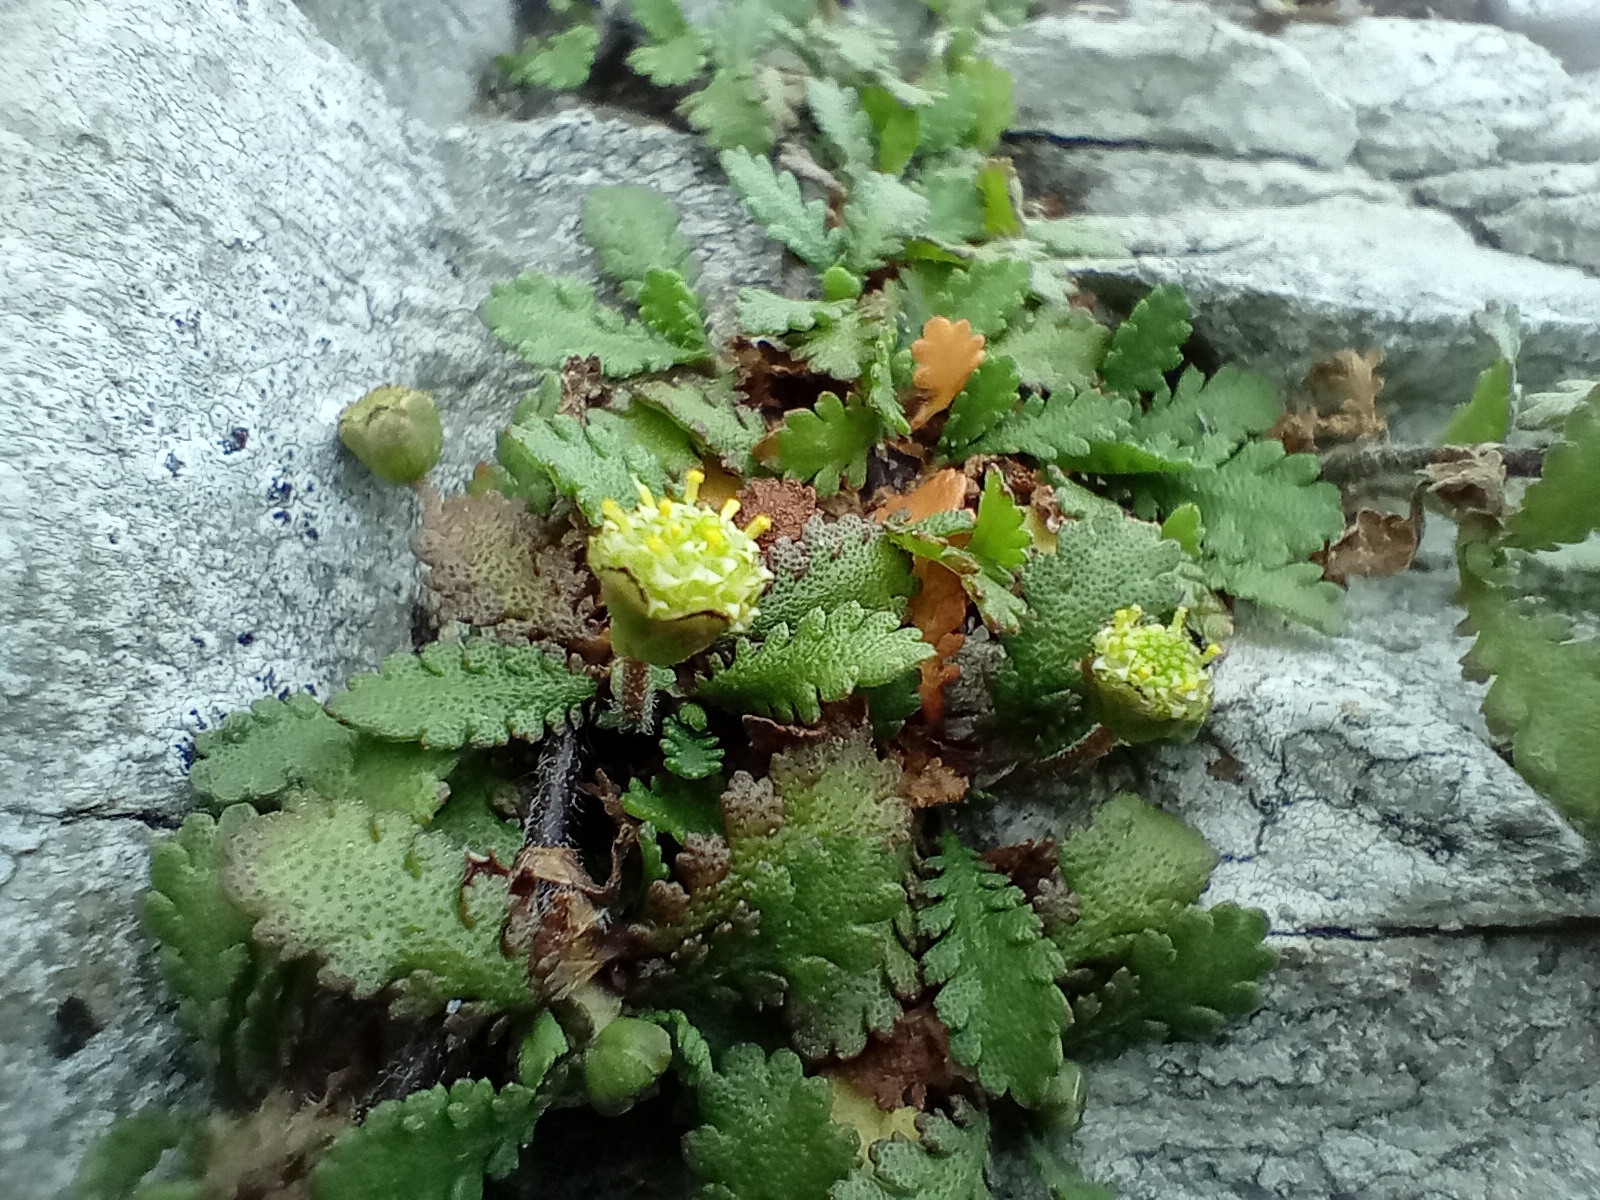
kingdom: Plantae
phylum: Tracheophyta
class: Magnoliopsida
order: Asterales
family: Asteraceae
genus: Leptinella
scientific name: Leptinella dioica
